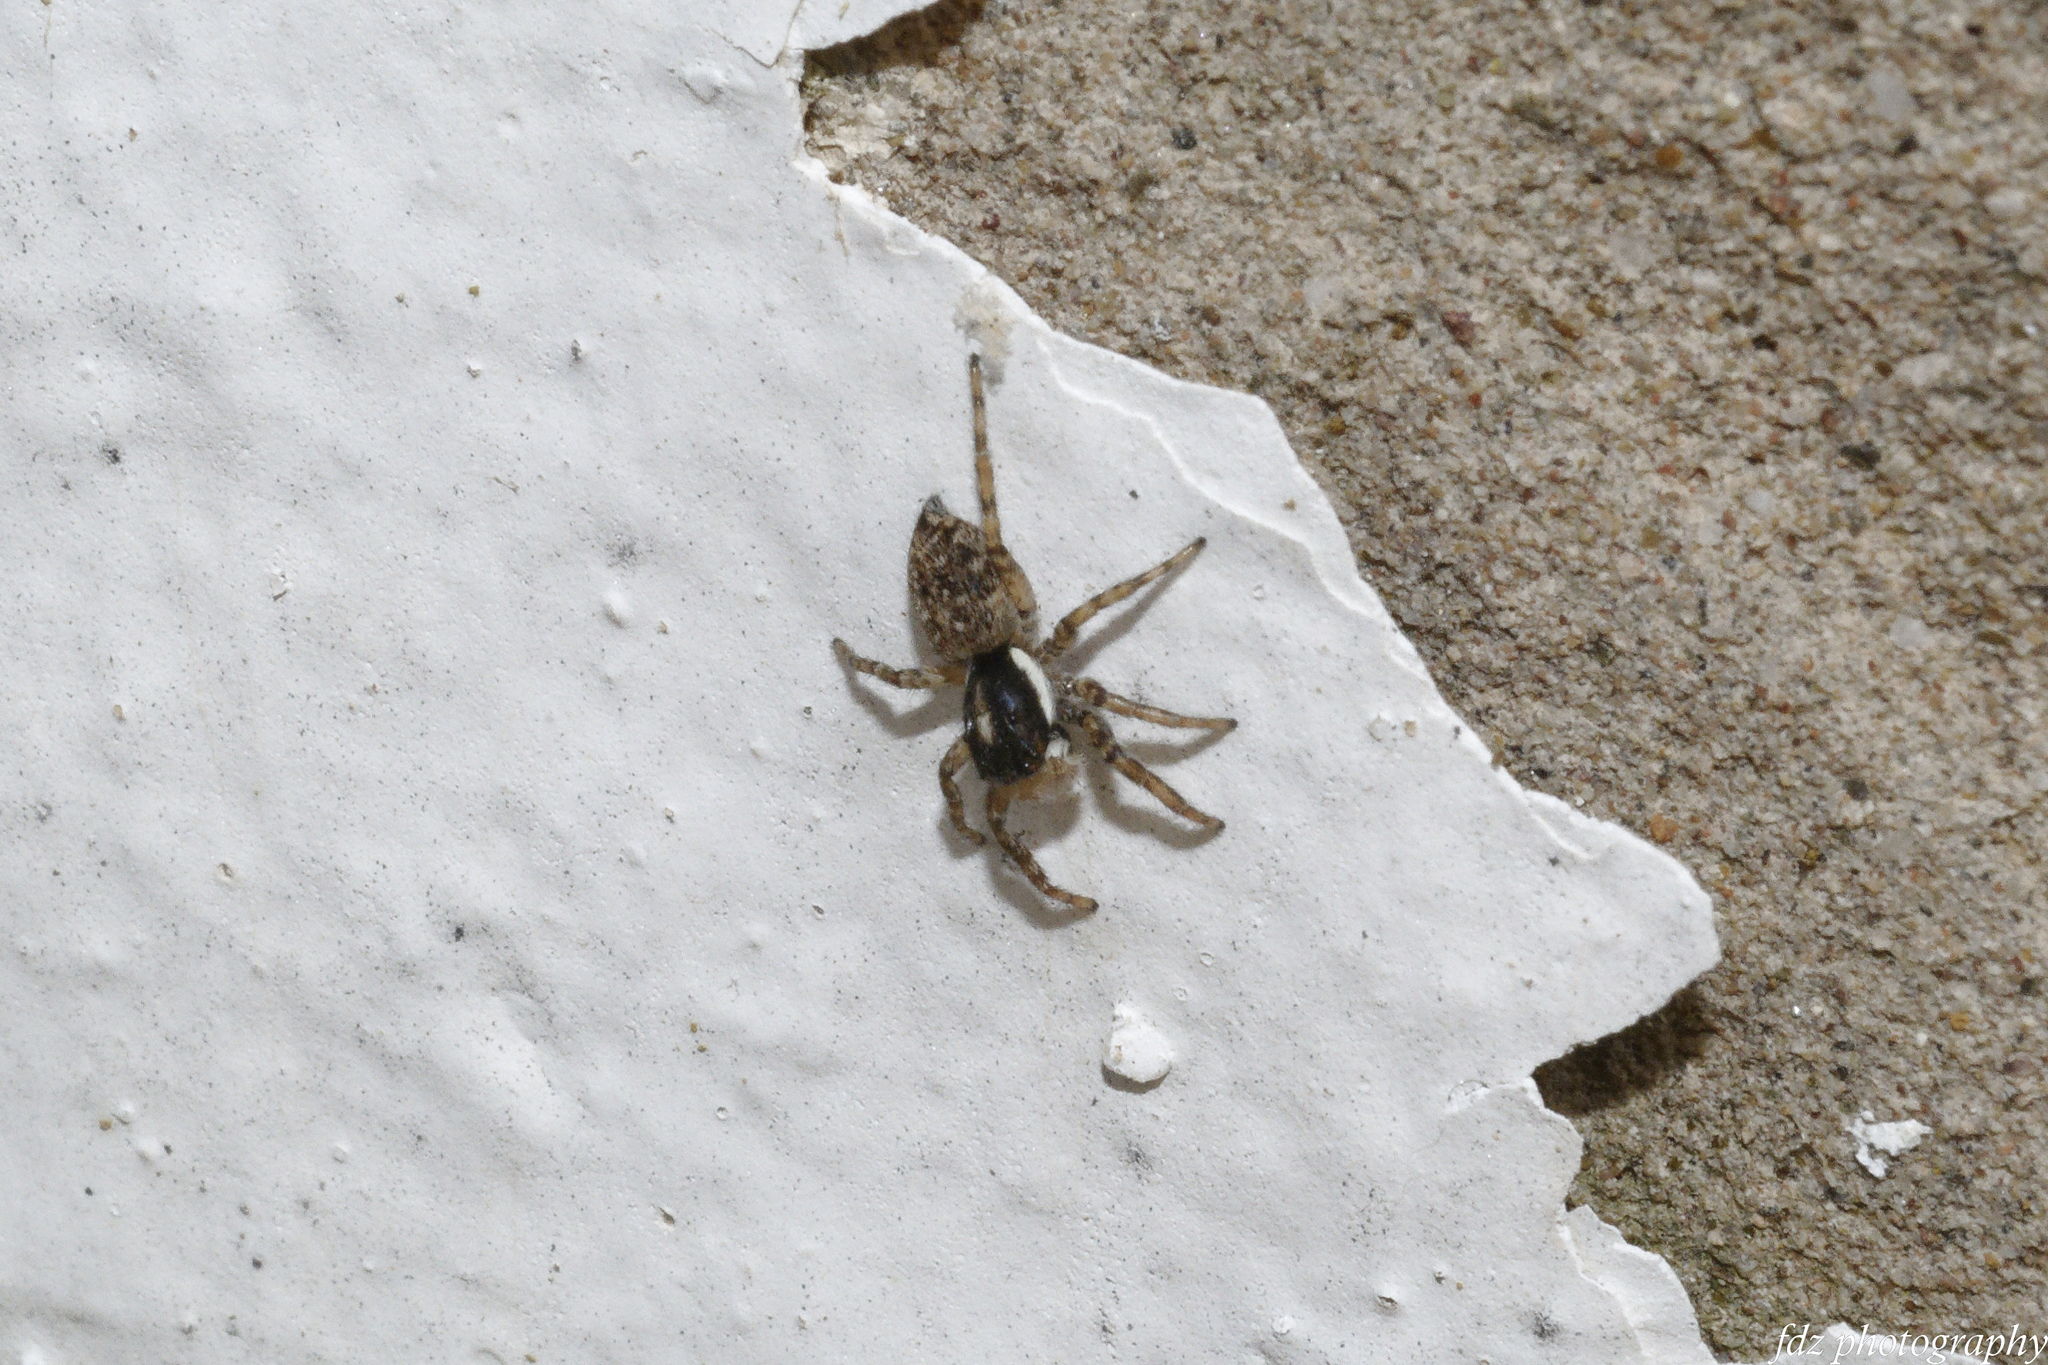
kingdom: Animalia
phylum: Arthropoda
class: Arachnida
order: Araneae
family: Salticidae
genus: Menemerus
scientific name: Menemerus semilimbatus
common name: Jumping spider
